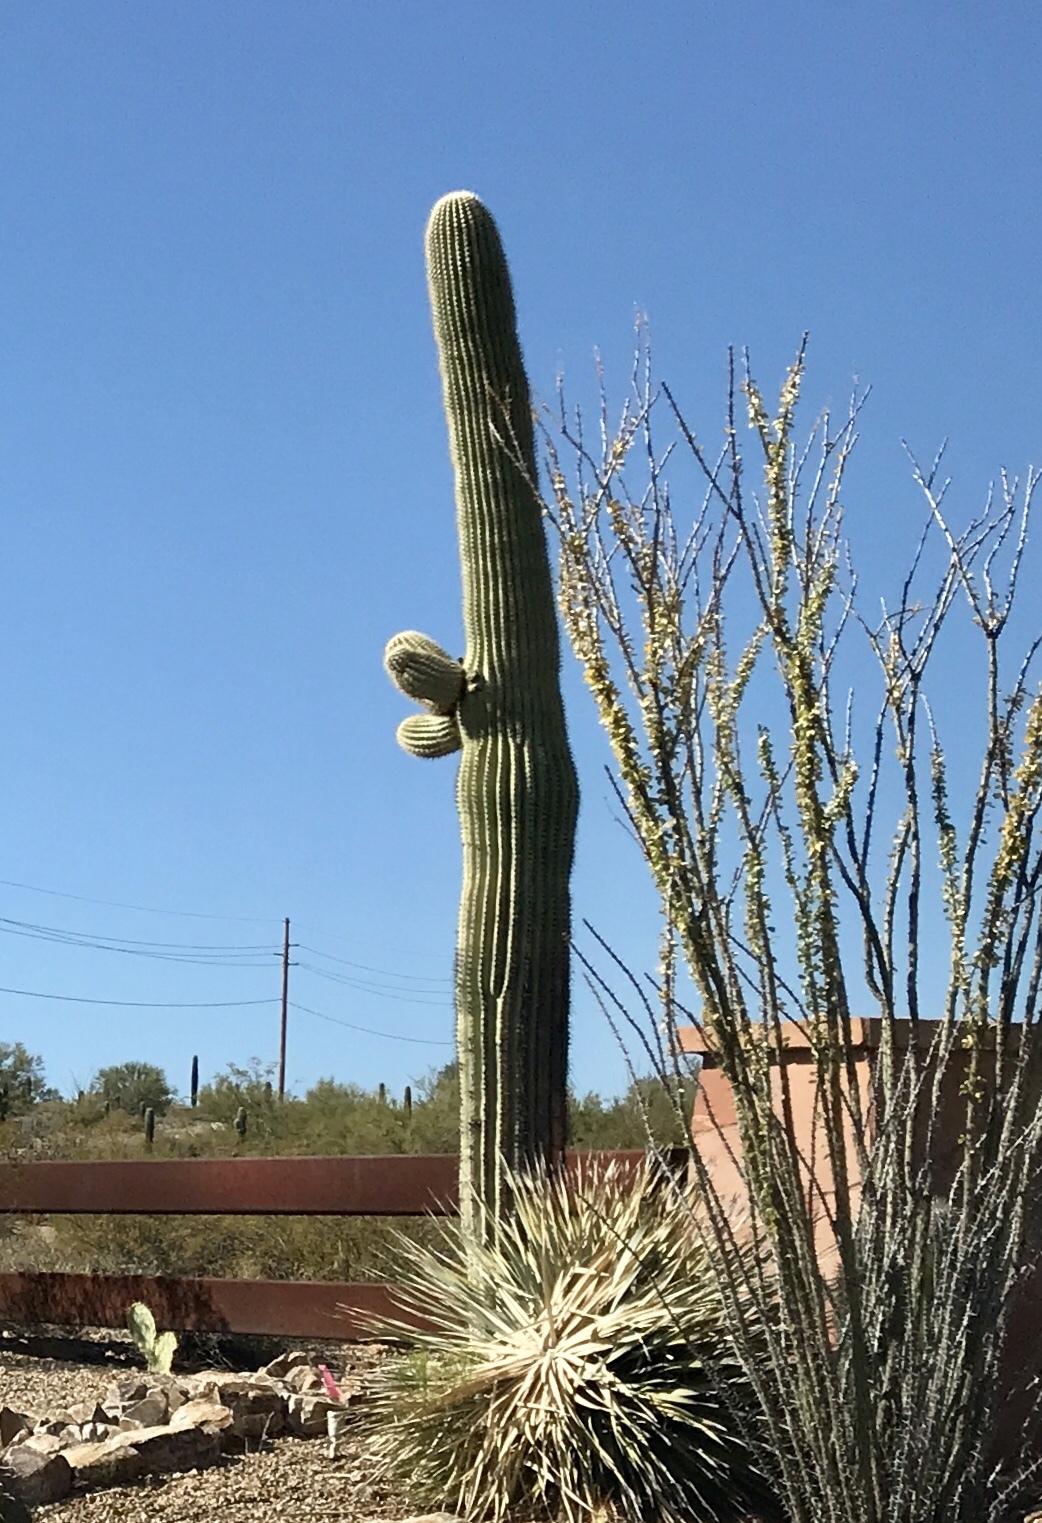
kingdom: Plantae
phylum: Tracheophyta
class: Magnoliopsida
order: Caryophyllales
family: Cactaceae
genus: Carnegiea
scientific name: Carnegiea gigantea
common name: Saguaro
